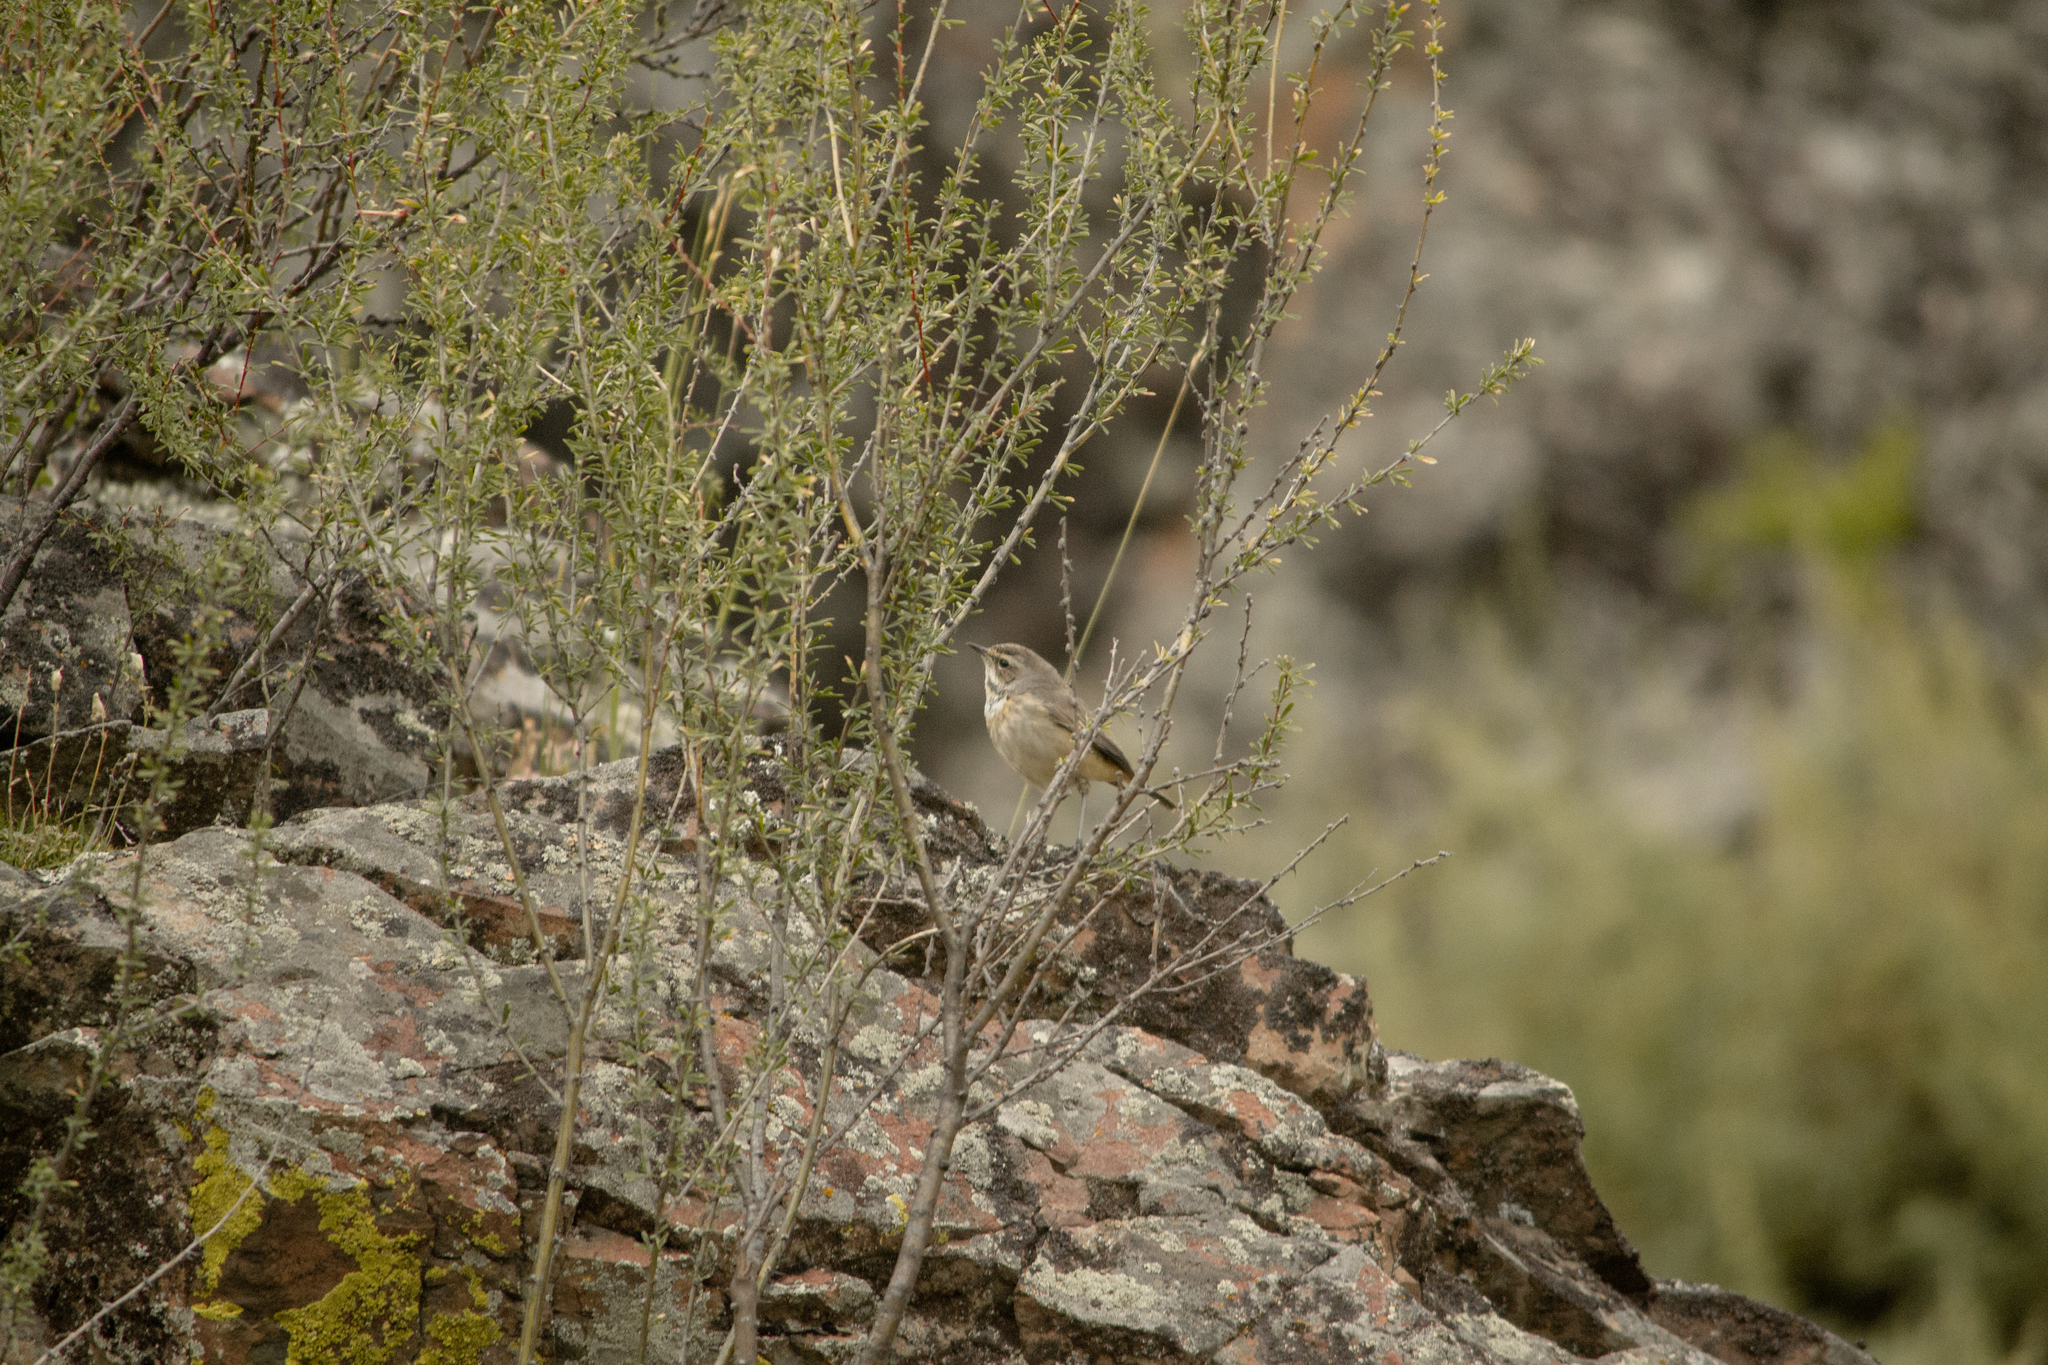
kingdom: Animalia
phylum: Chordata
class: Aves
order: Passeriformes
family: Muscicapidae
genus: Luscinia
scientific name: Luscinia svecica
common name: Bluethroat
